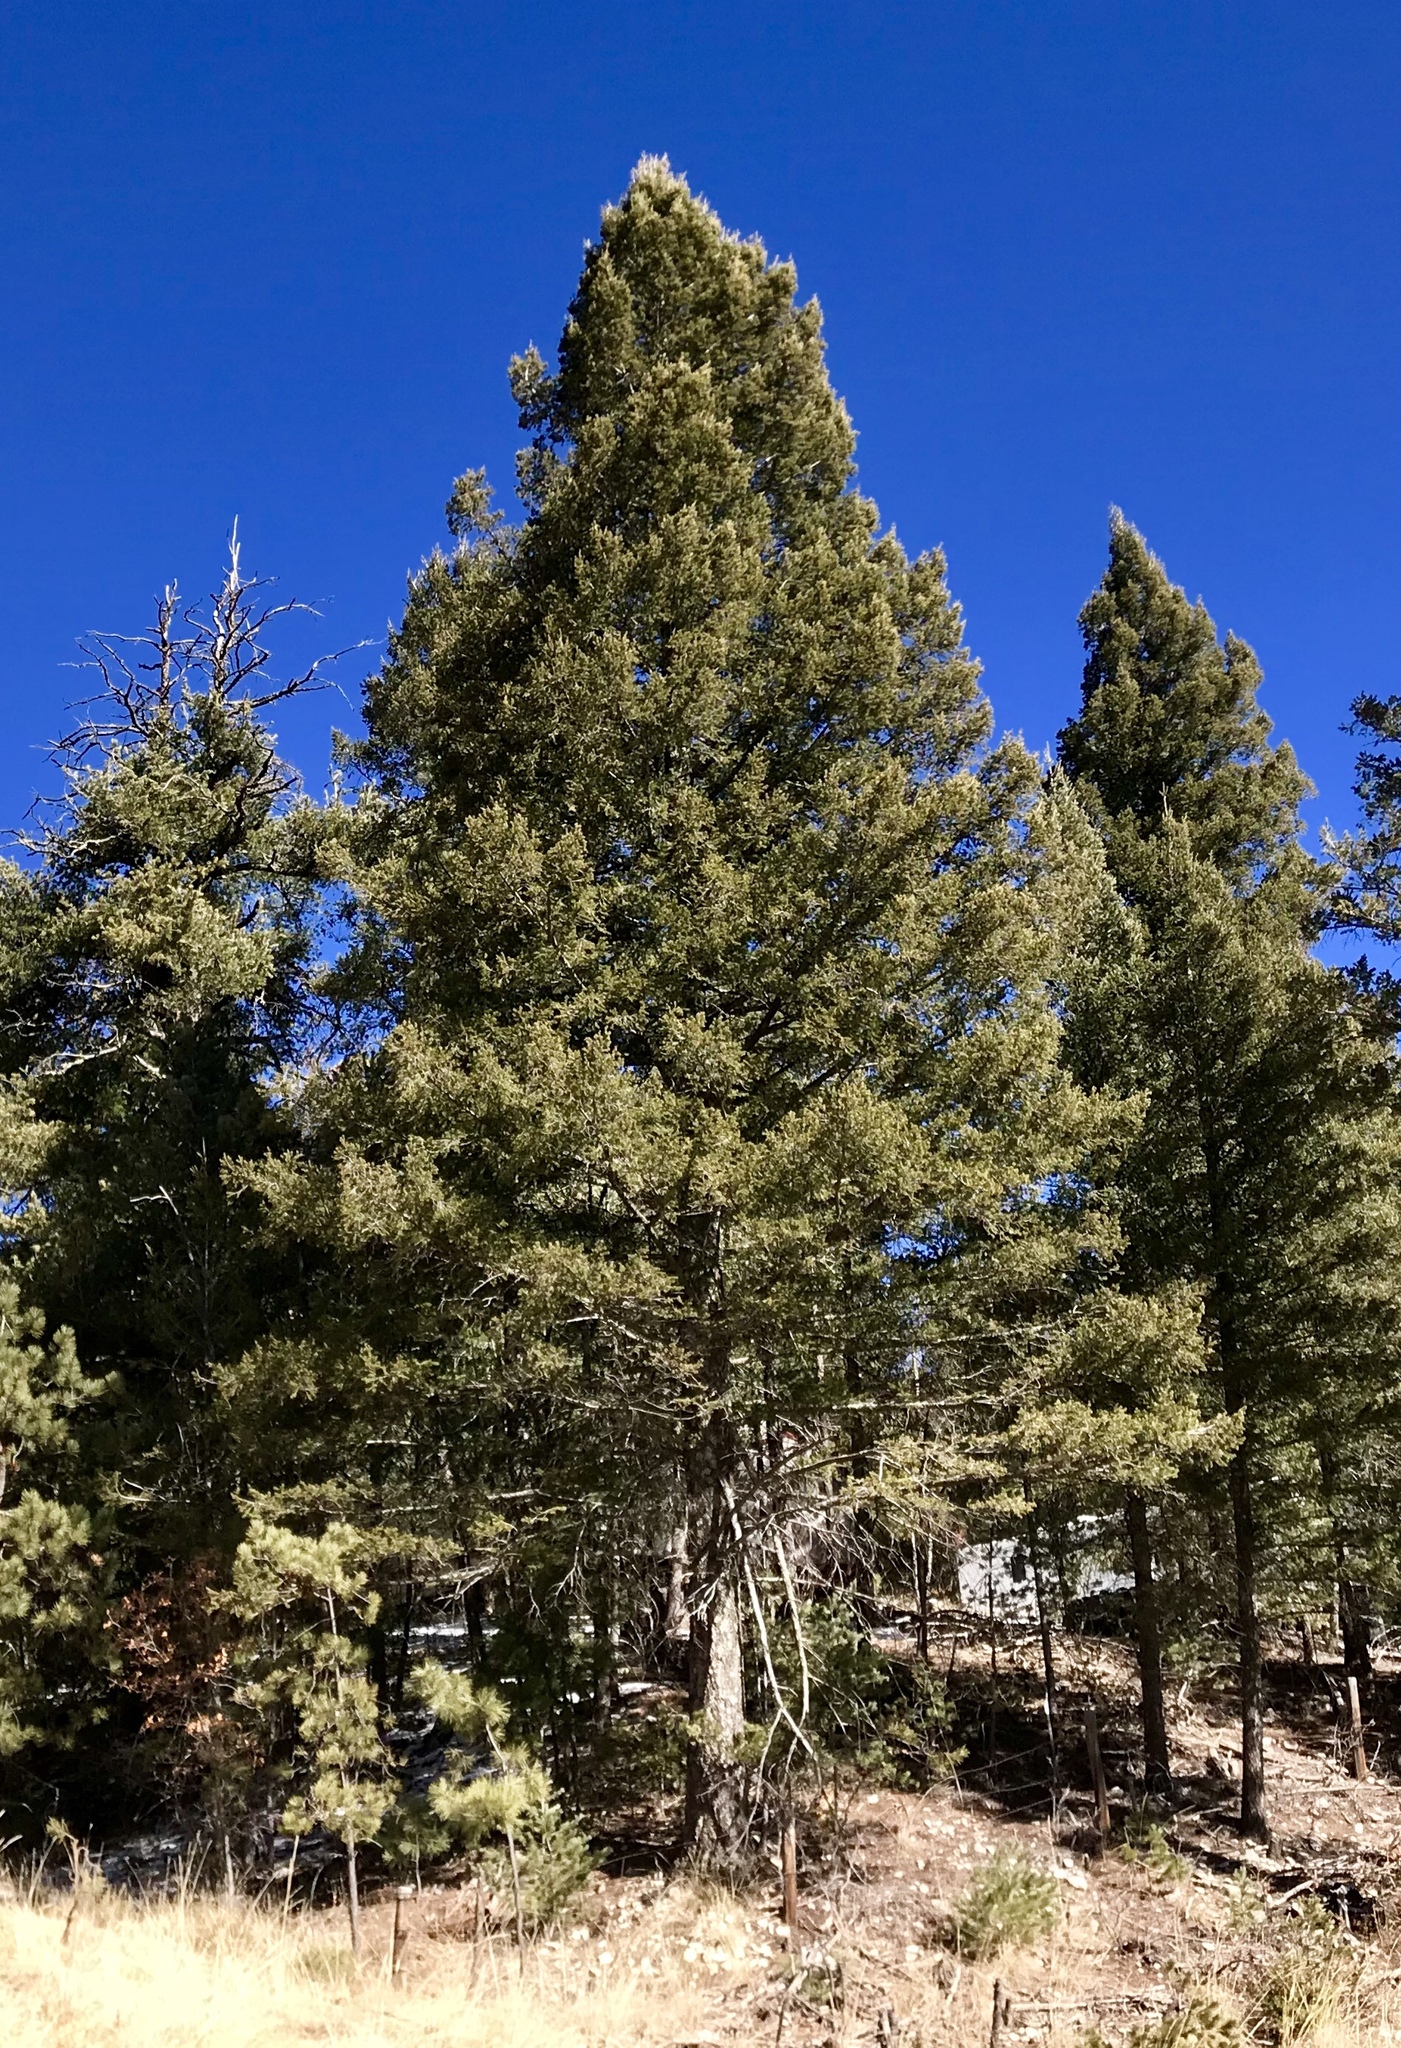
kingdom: Plantae
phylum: Tracheophyta
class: Pinopsida
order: Pinales
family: Pinaceae
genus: Pseudotsuga
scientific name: Pseudotsuga menziesii
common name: Douglas fir
